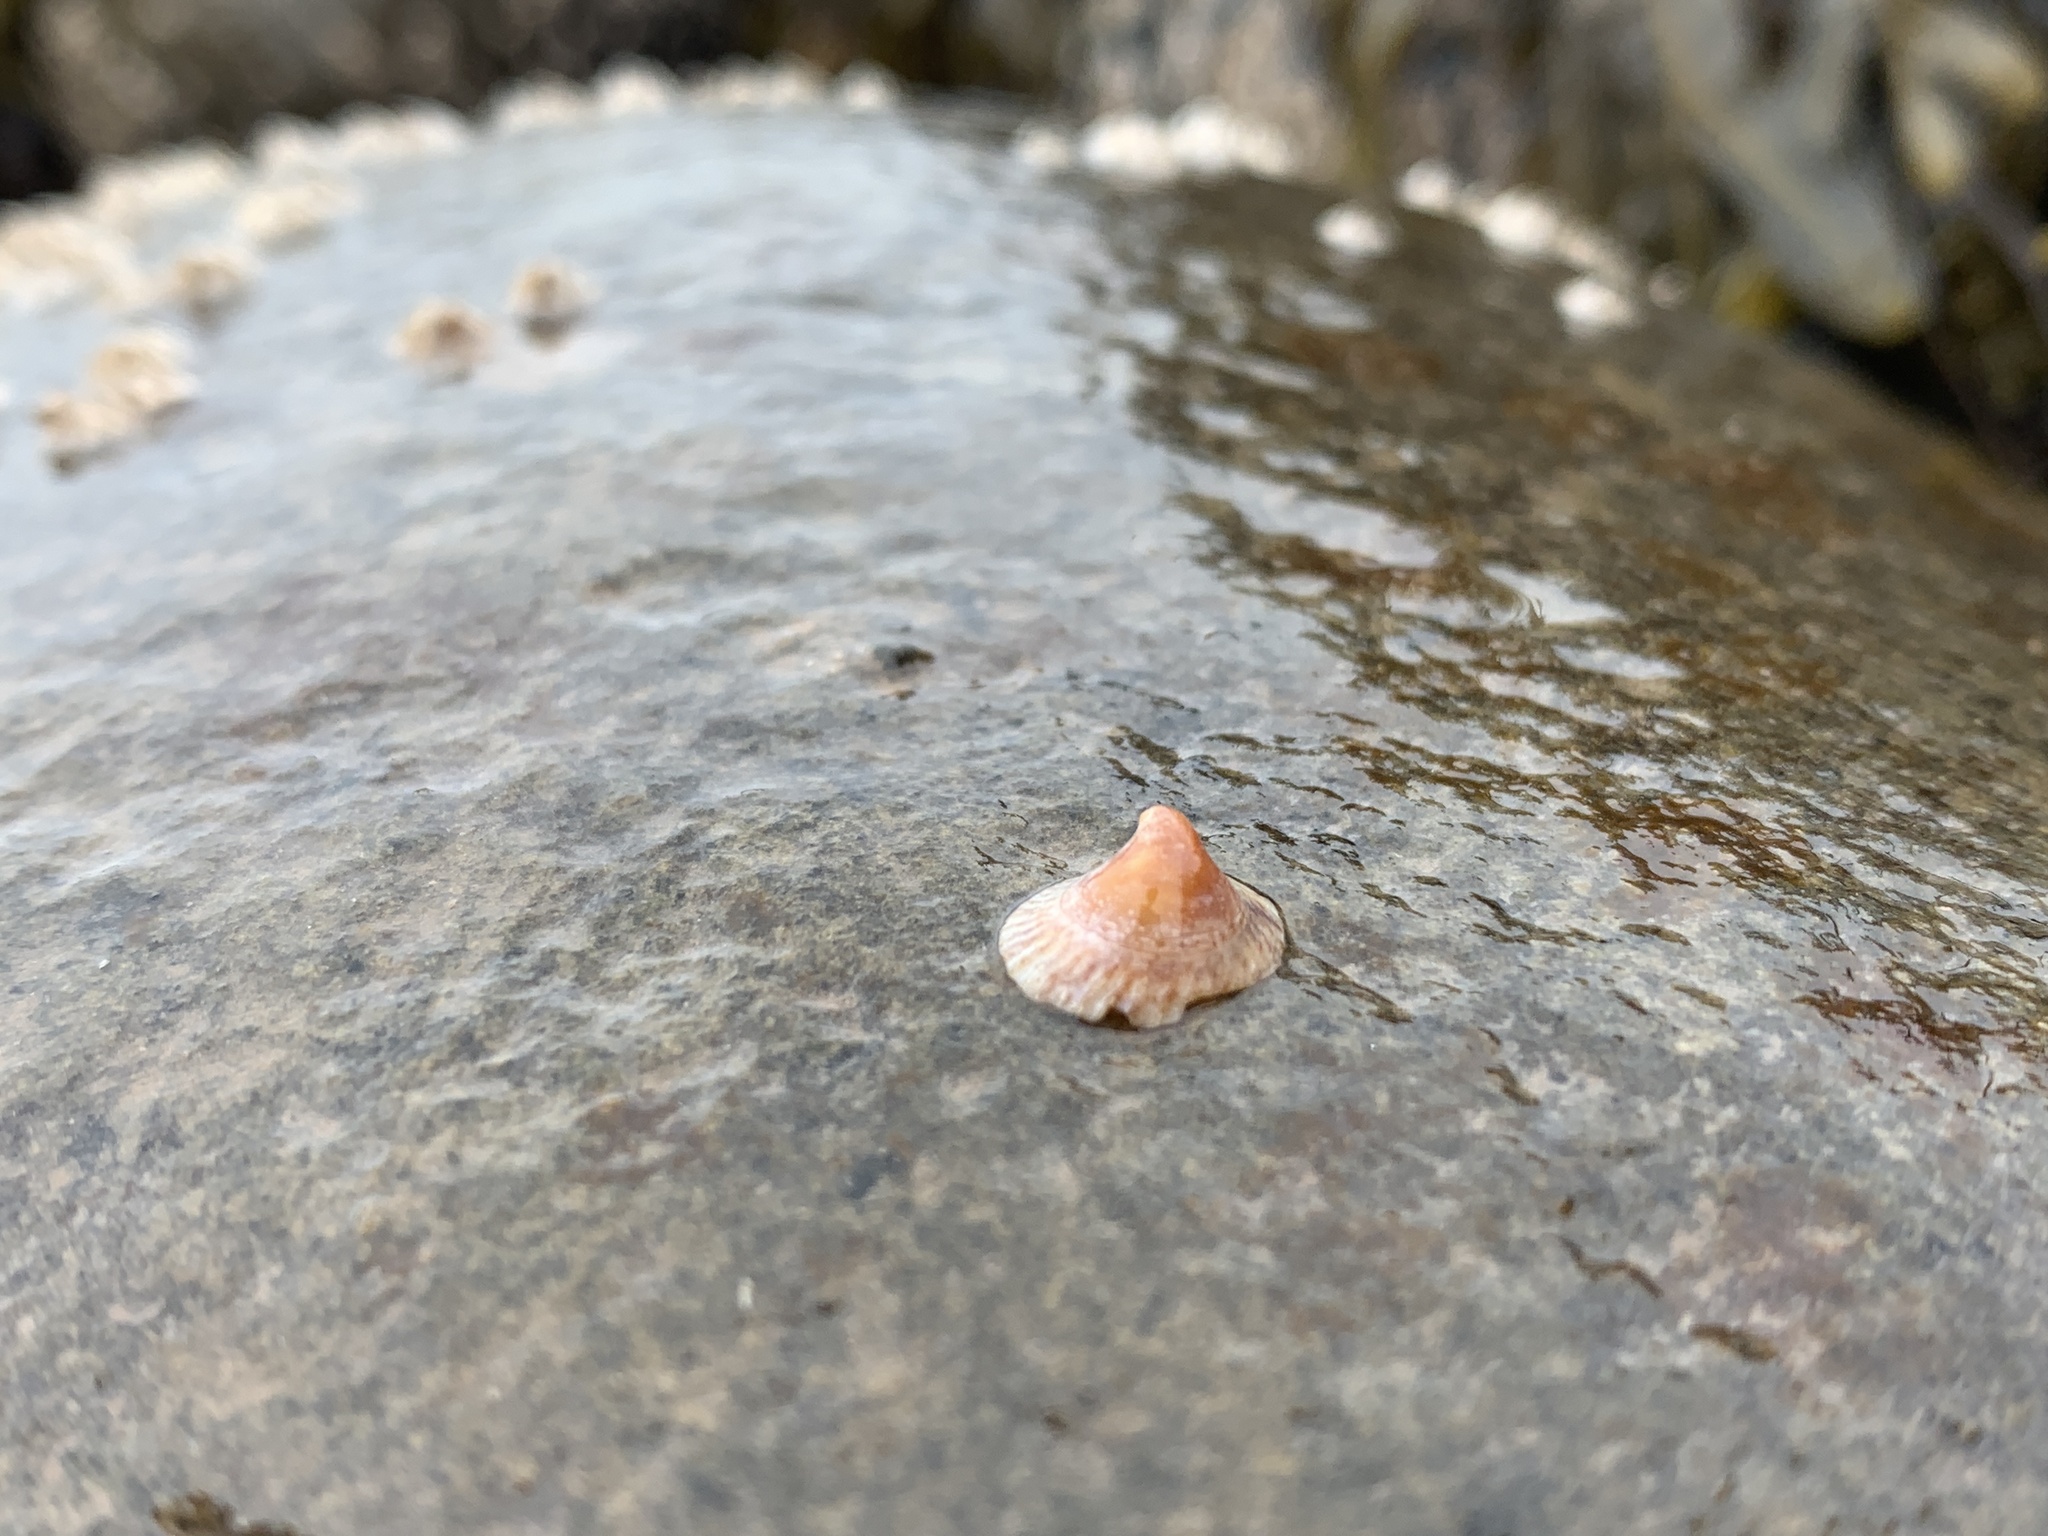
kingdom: Animalia
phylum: Mollusca
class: Gastropoda
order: Littorinimorpha
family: Calyptraeidae
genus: Crucibulum
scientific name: Crucibulum striatum
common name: Striate cup-and -saucer
